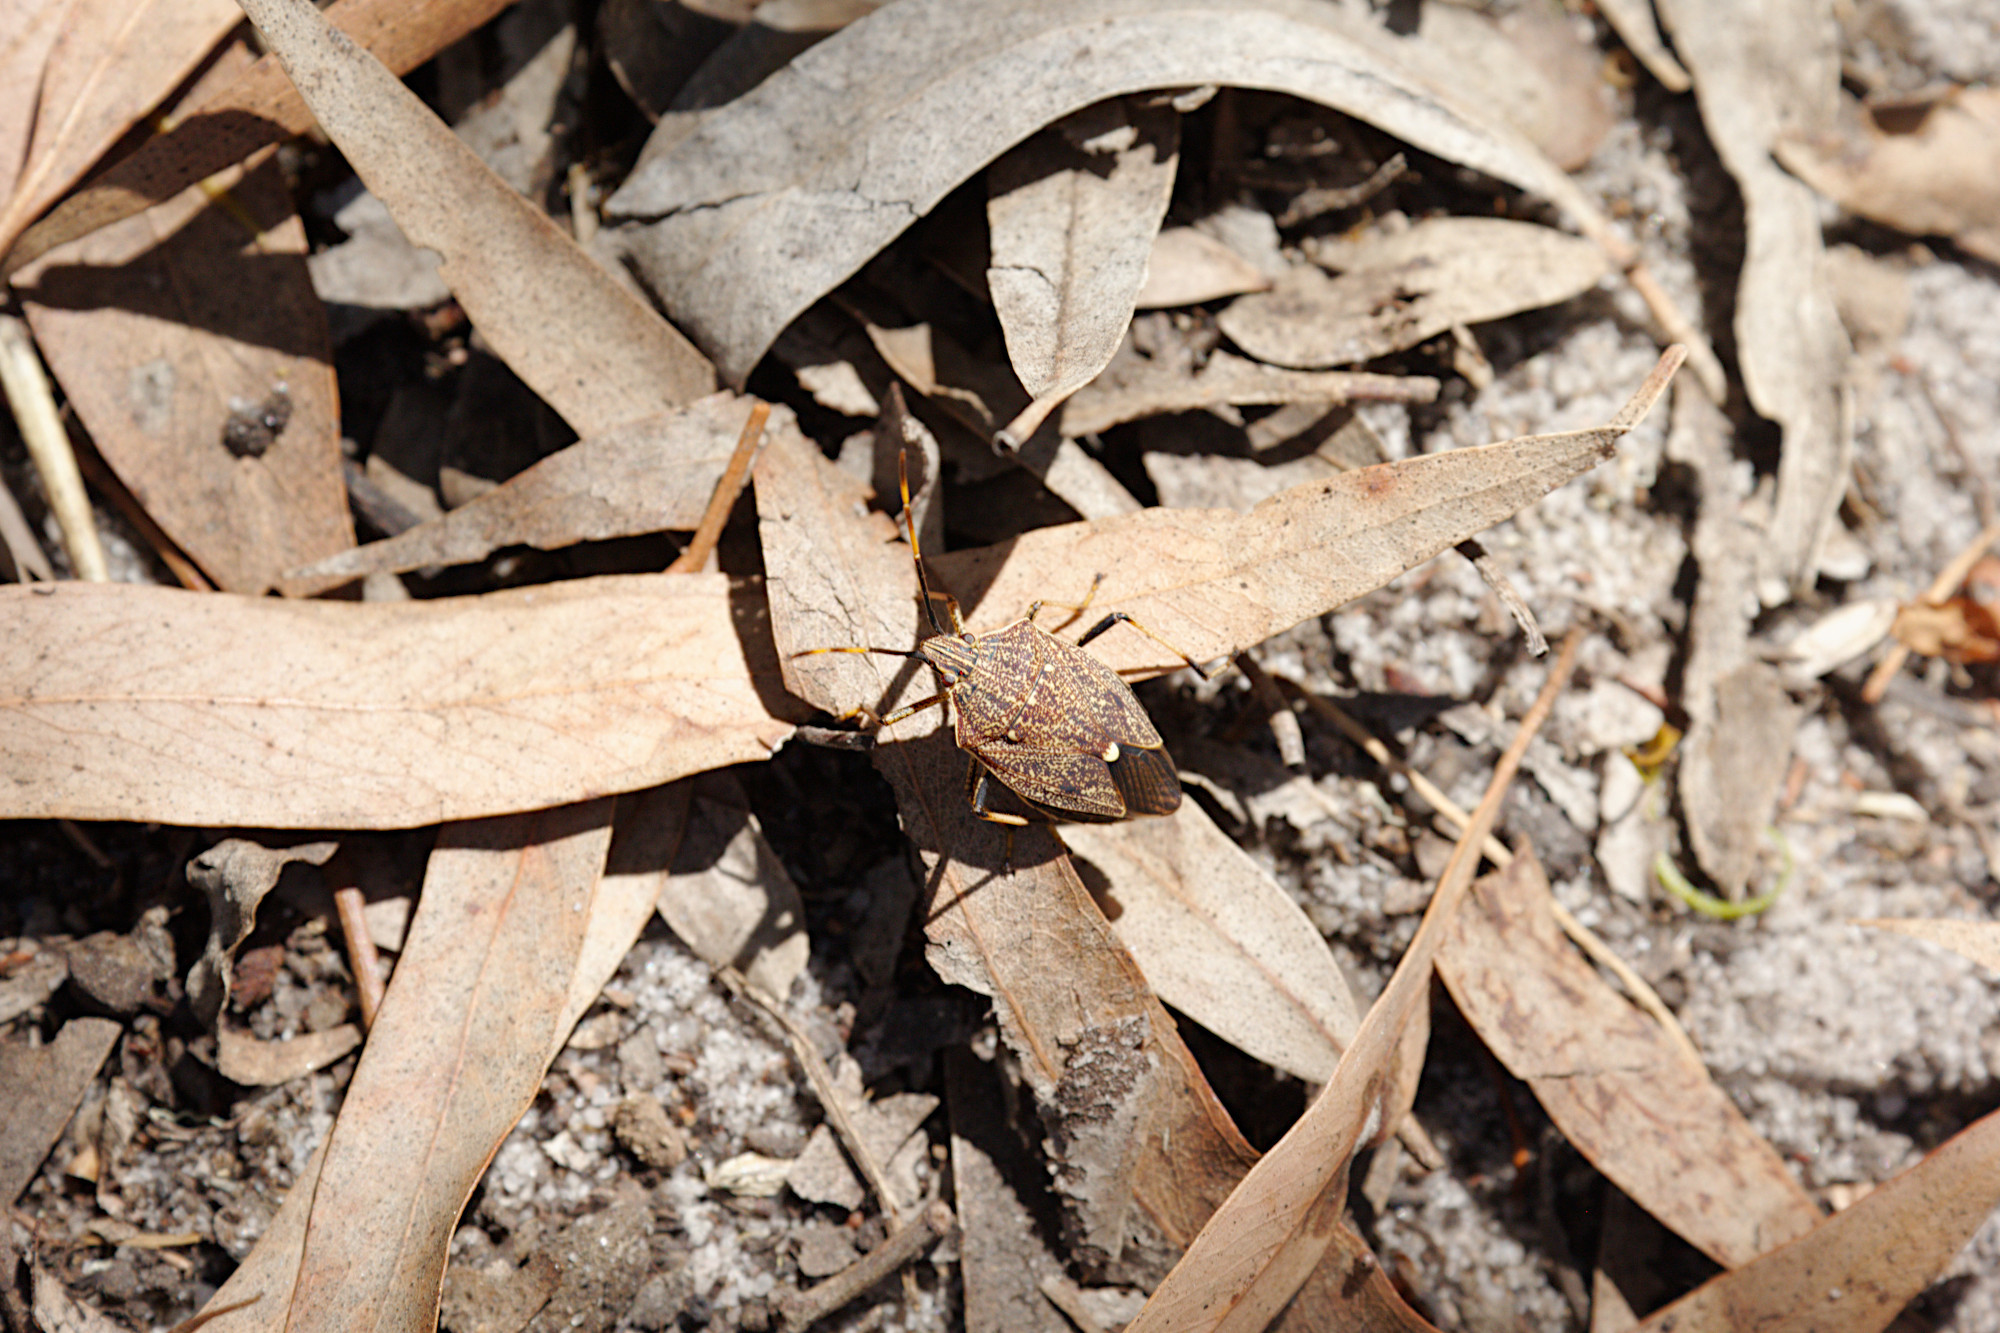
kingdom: Animalia
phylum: Arthropoda
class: Insecta
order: Hemiptera
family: Pentatomidae
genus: Poecilometis
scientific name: Poecilometis
